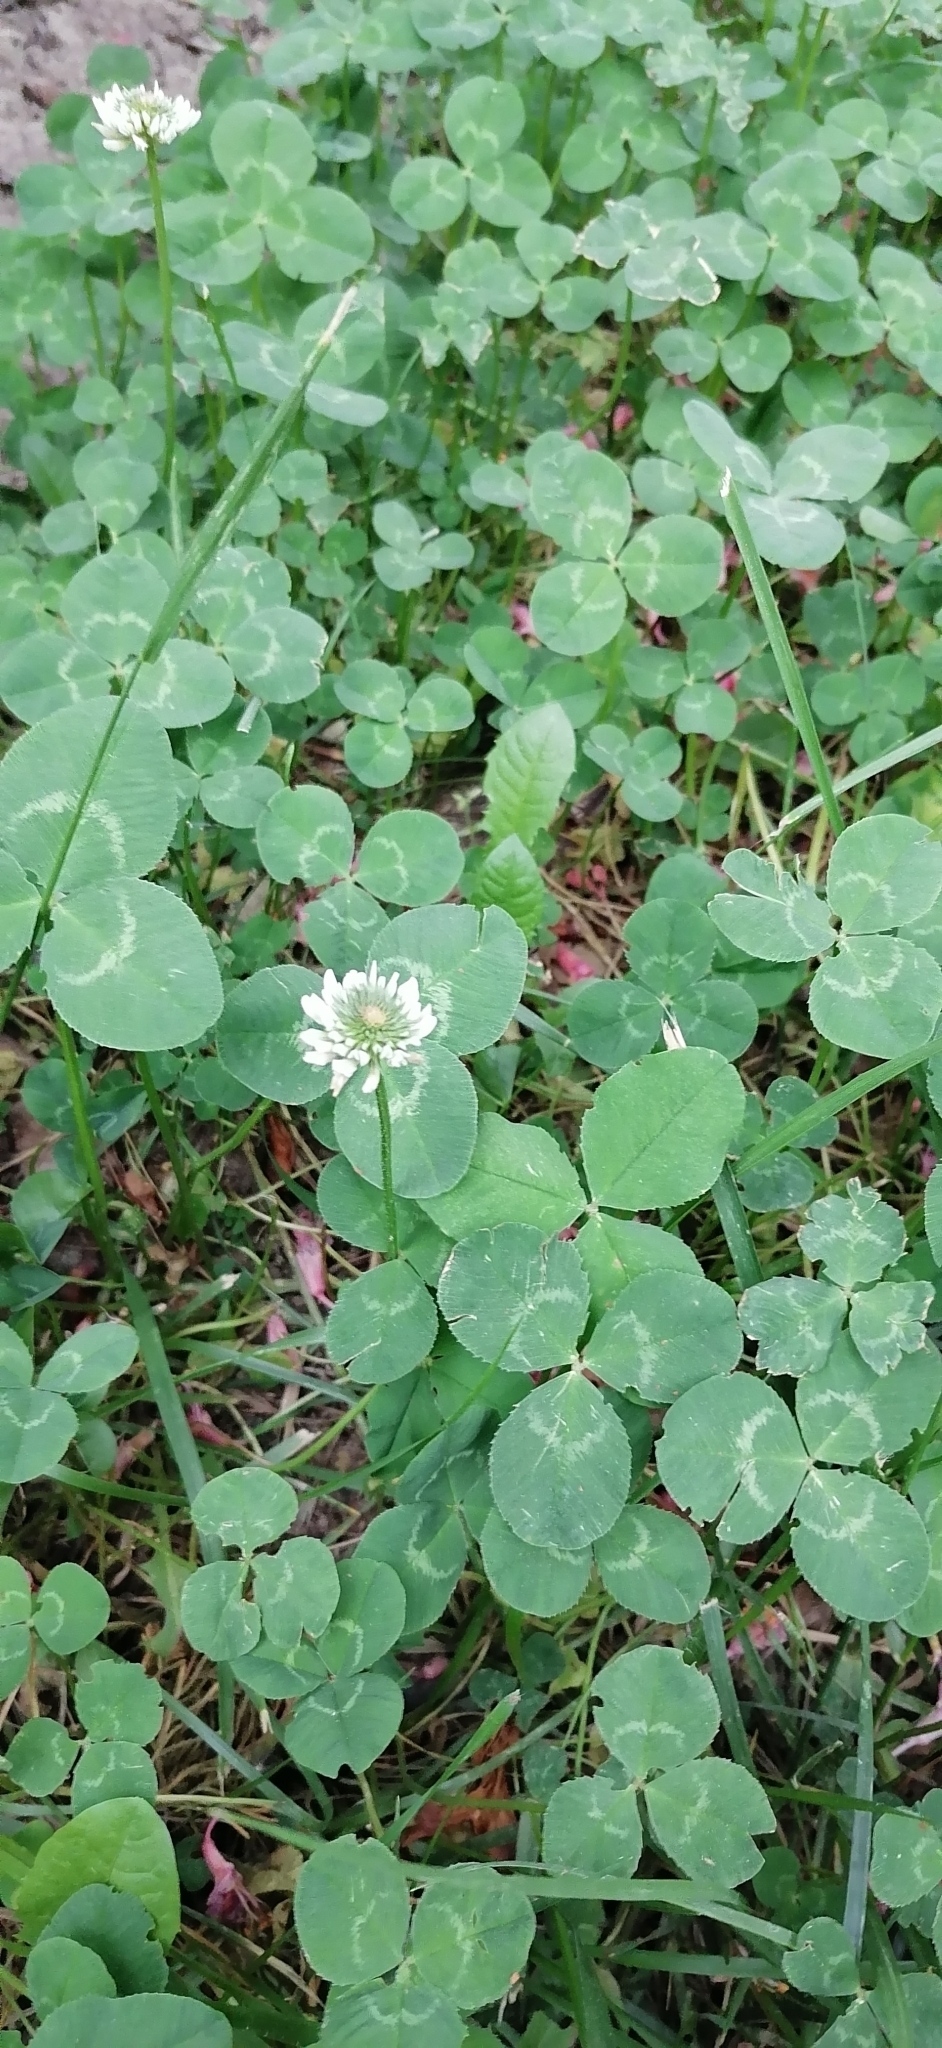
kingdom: Plantae
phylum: Tracheophyta
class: Magnoliopsida
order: Fabales
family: Fabaceae
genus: Trifolium
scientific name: Trifolium repens
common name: White clover
